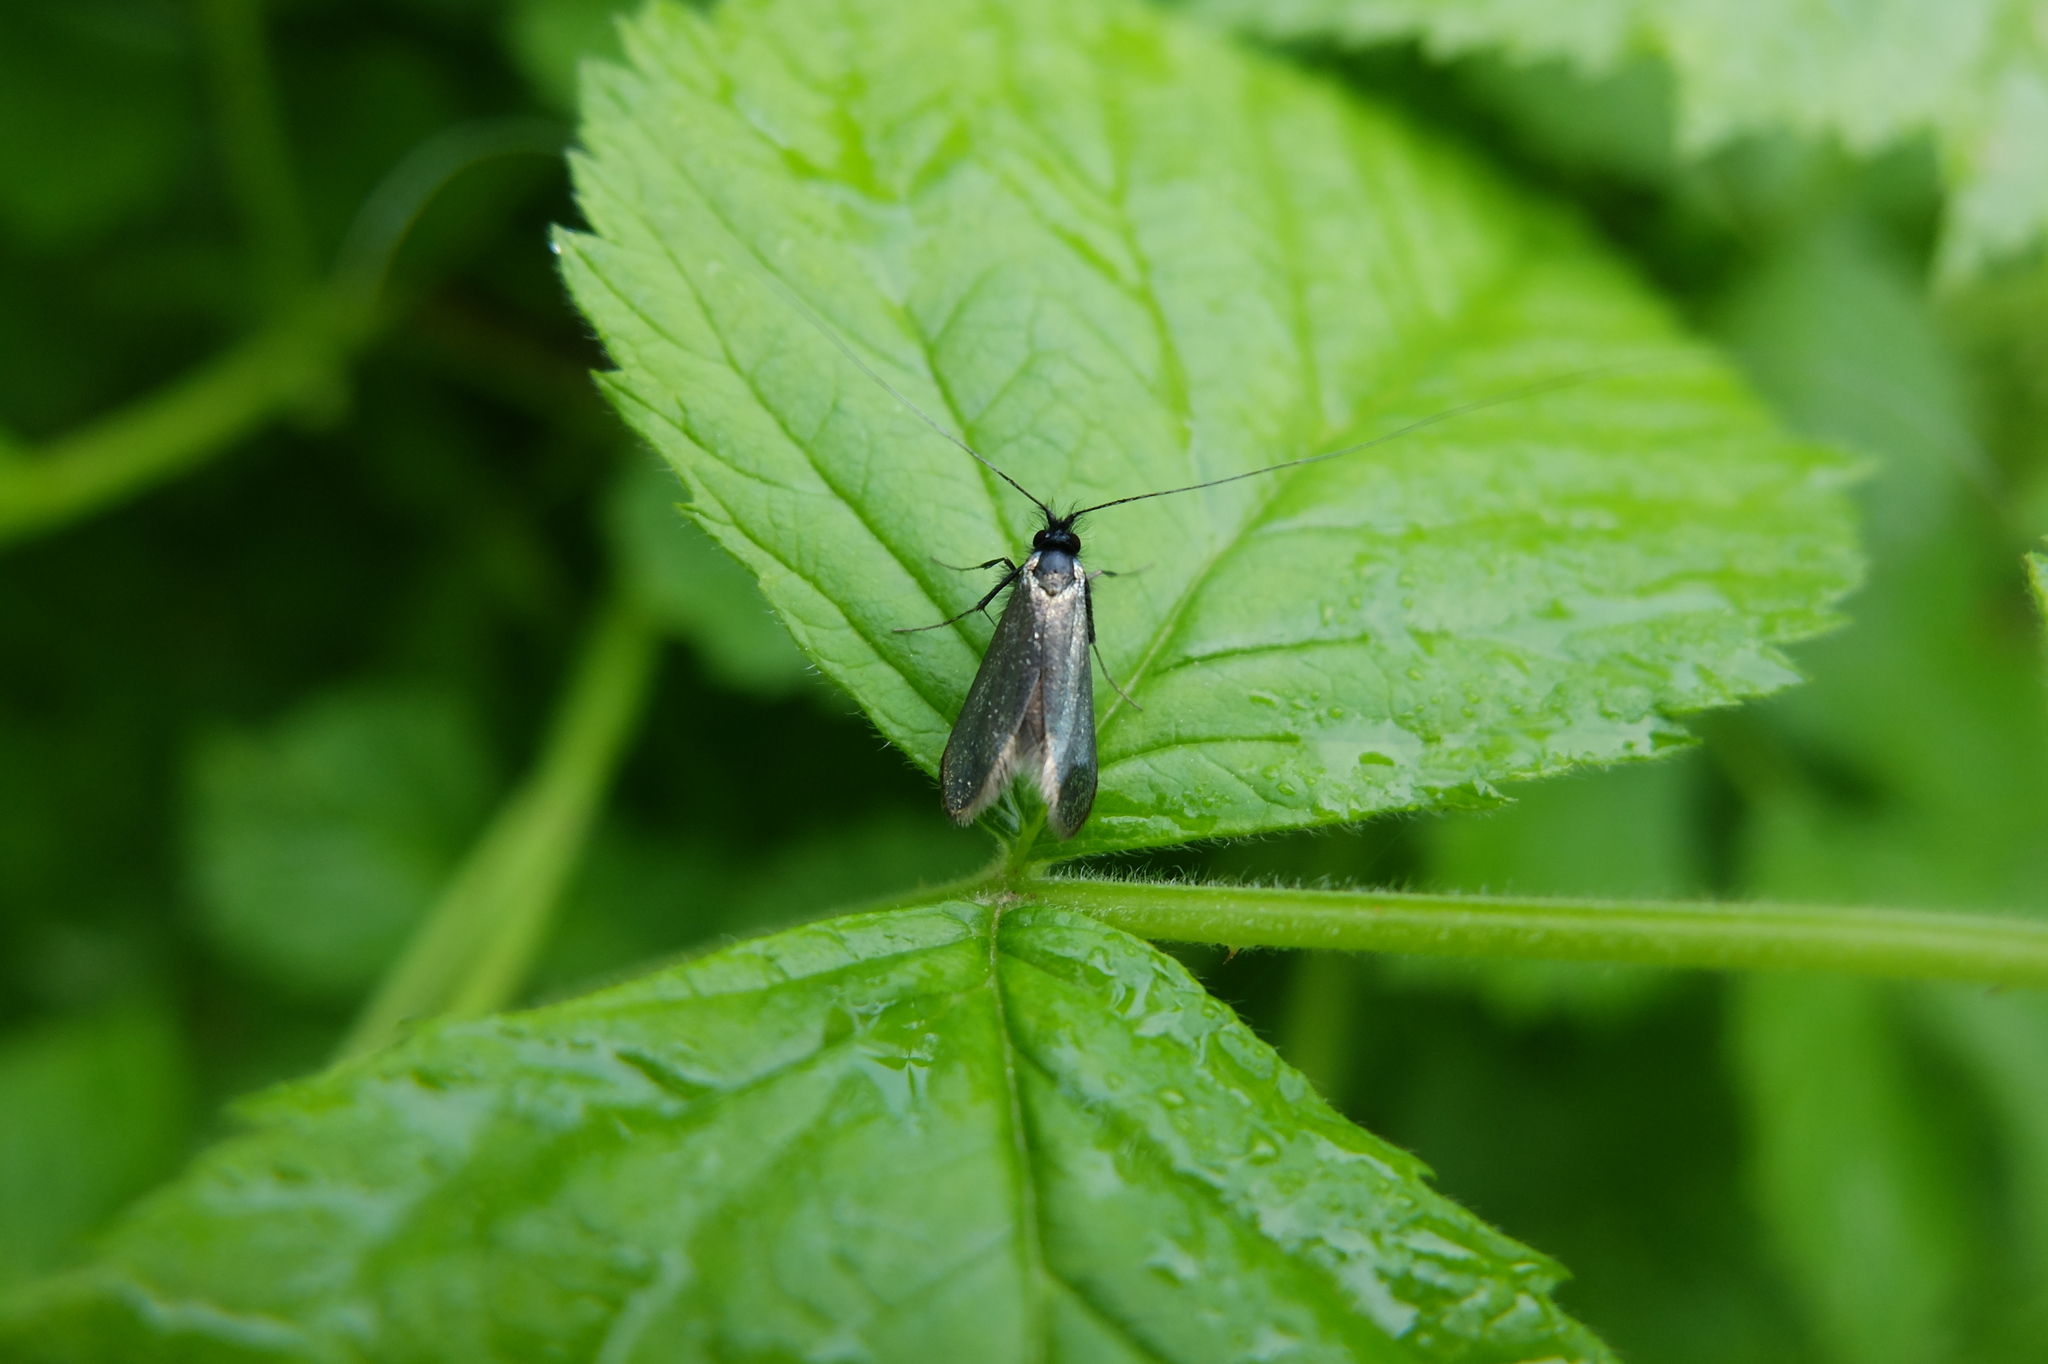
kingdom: Animalia
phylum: Arthropoda
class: Insecta
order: Lepidoptera
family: Adelidae
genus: Adela
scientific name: Adela viridella
